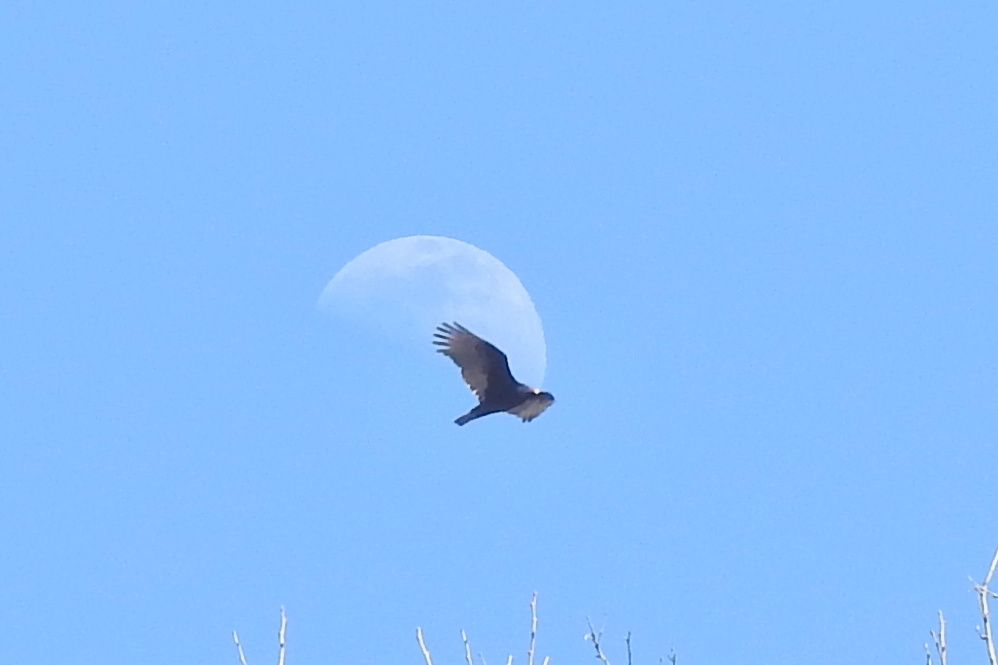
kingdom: Animalia
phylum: Chordata
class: Aves
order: Accipitriformes
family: Cathartidae
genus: Cathartes
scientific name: Cathartes aura
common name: Turkey vulture
